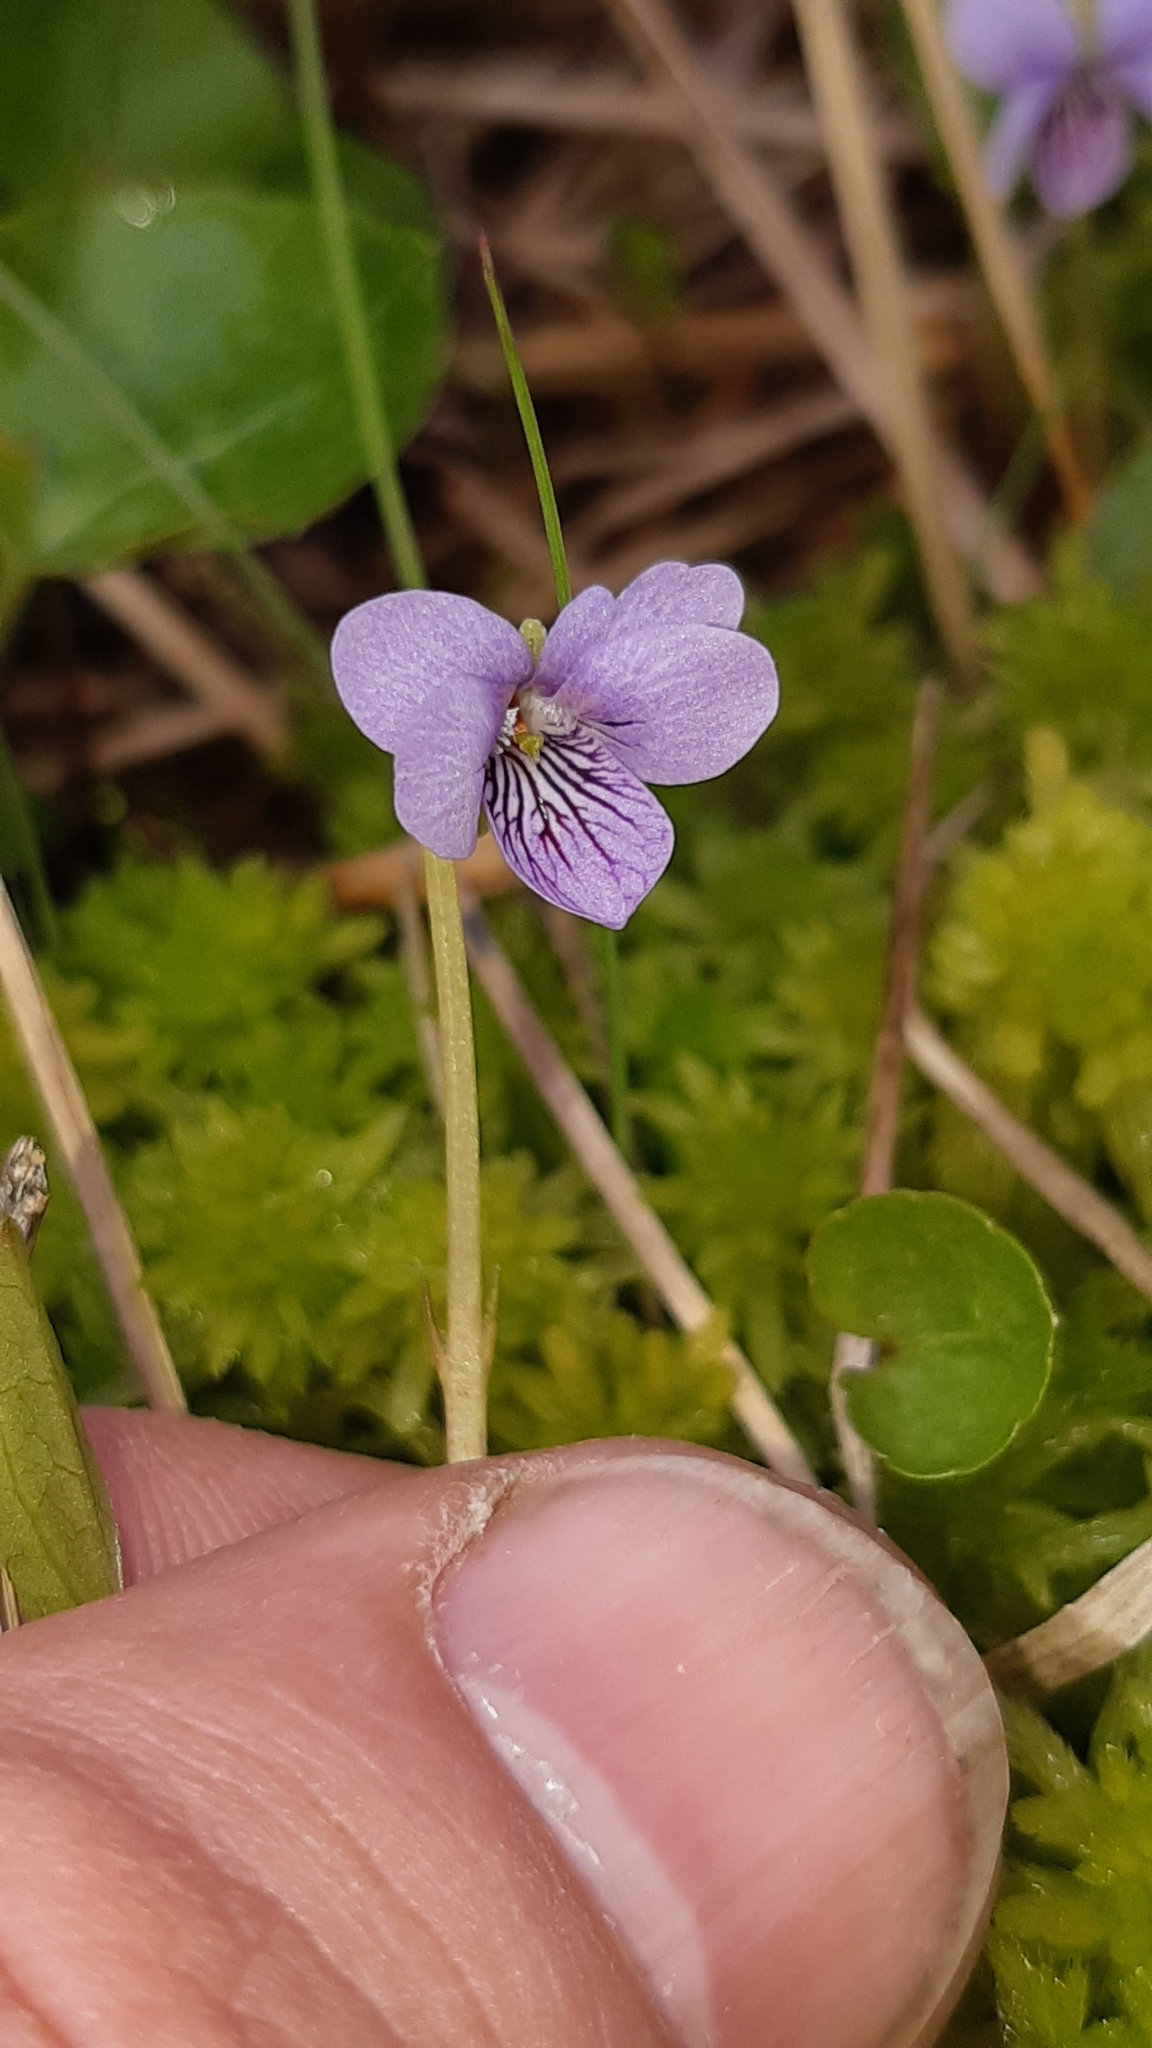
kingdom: Plantae
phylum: Tracheophyta
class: Magnoliopsida
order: Malpighiales
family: Violaceae
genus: Viola
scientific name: Viola palustris
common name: Marsh violet
